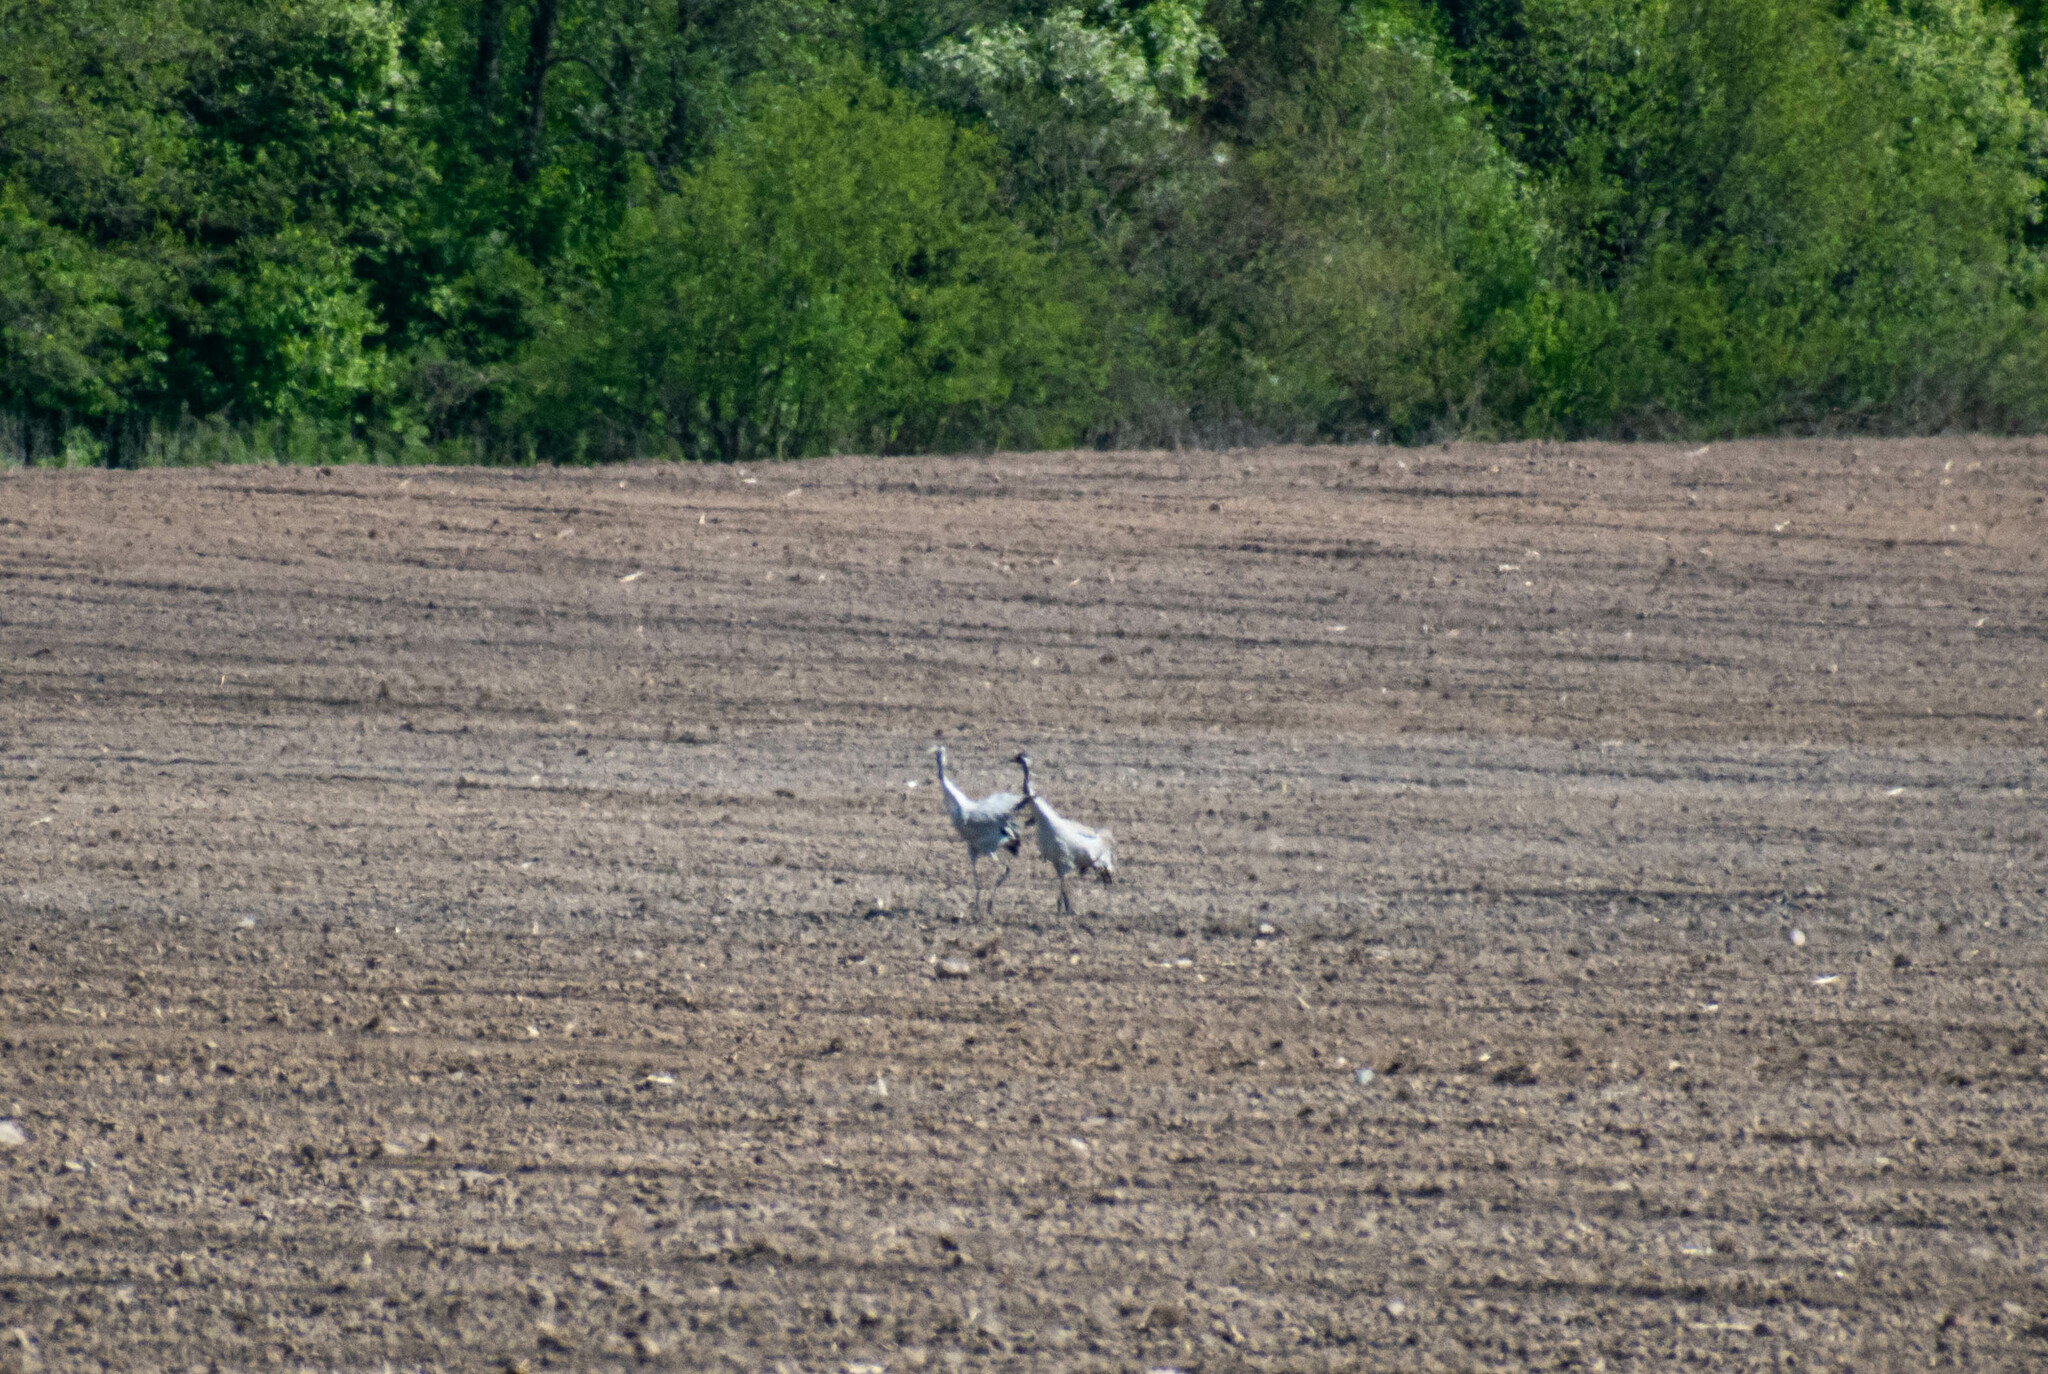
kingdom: Animalia
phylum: Chordata
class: Aves
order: Gruiformes
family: Gruidae
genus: Grus
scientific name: Grus grus
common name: Common crane
